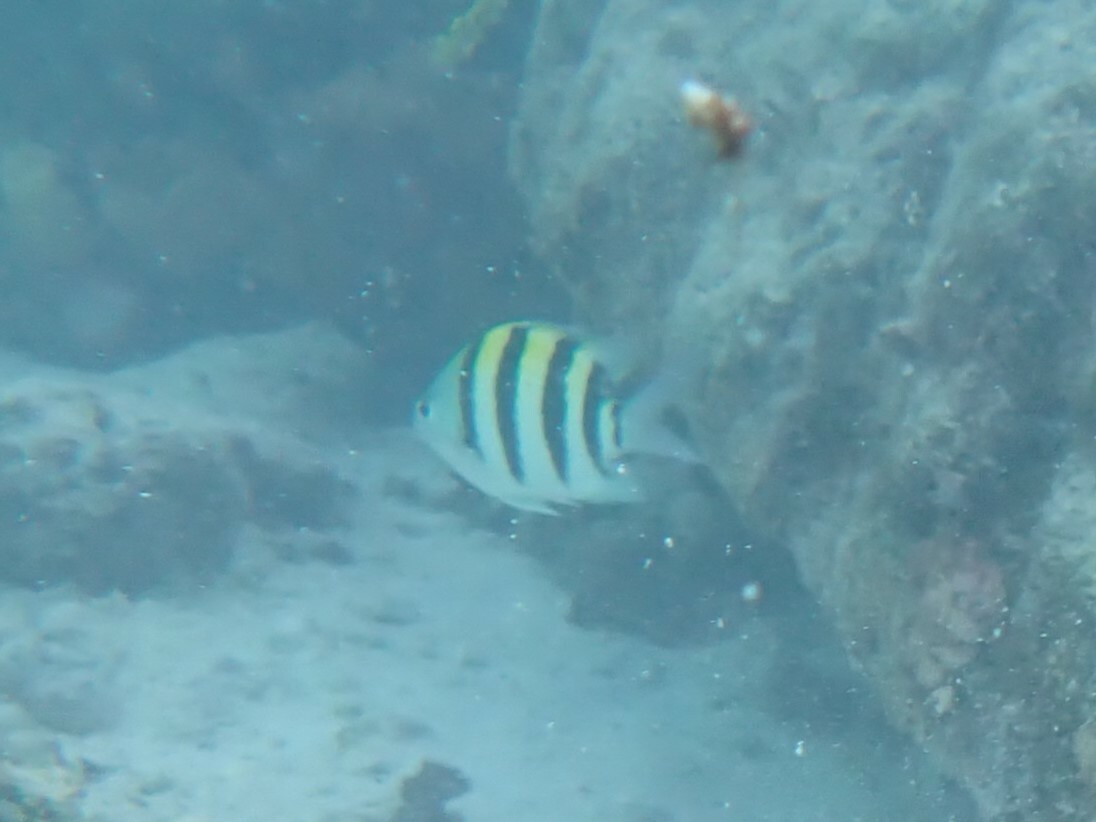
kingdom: Animalia
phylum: Chordata
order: Perciformes
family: Pomacentridae
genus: Abudefduf
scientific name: Abudefduf vaigiensis
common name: Indo-pacific sergeant
